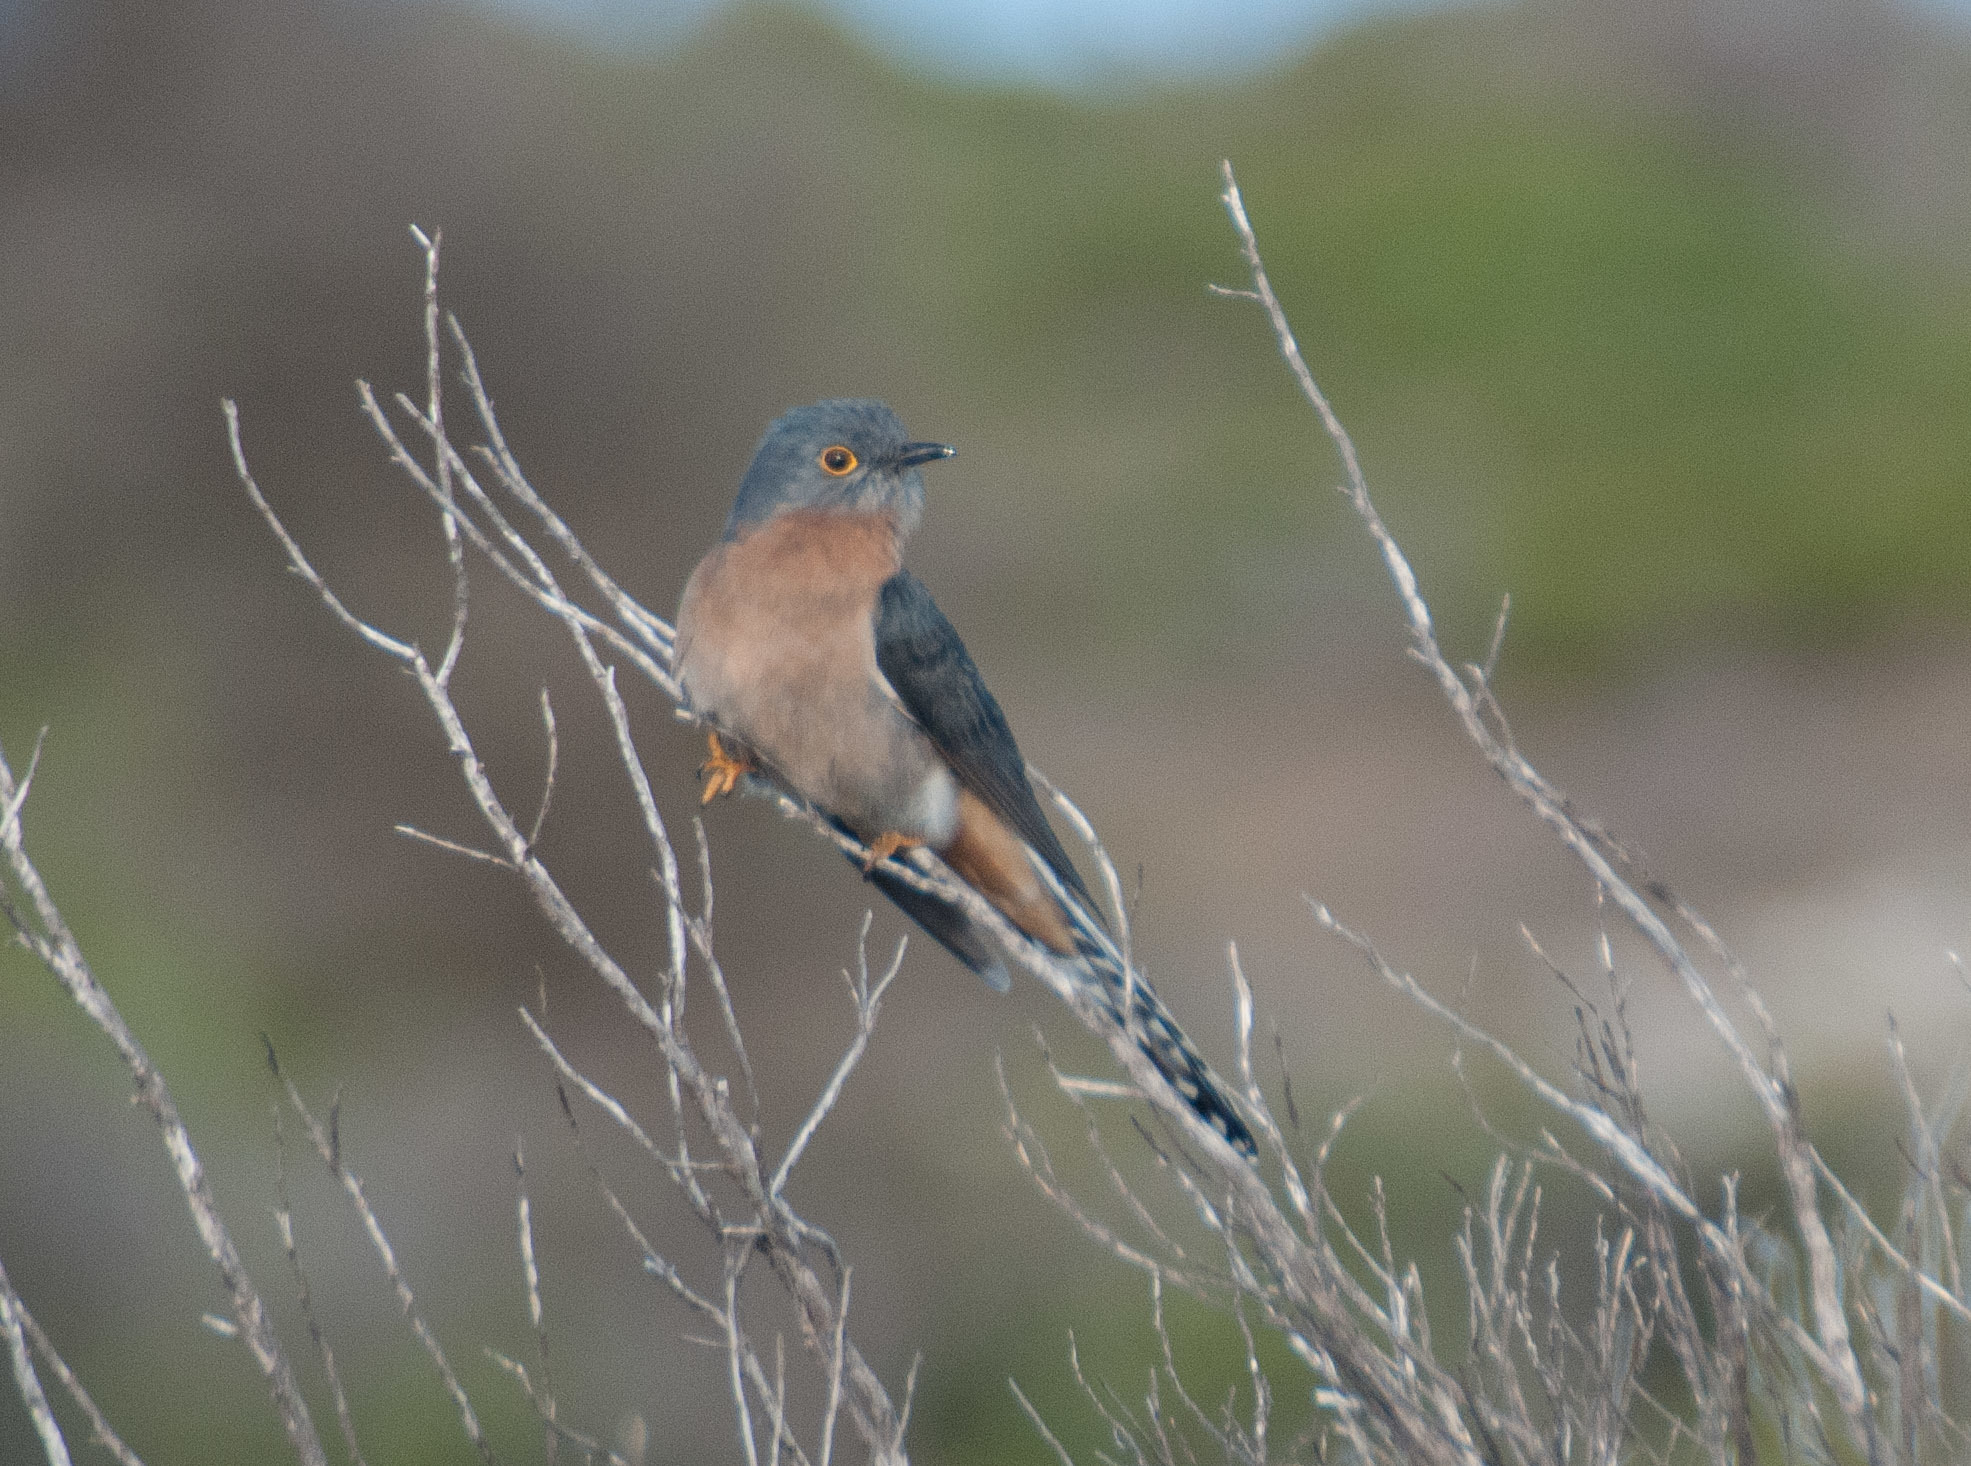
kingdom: Animalia
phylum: Chordata
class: Aves
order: Cuculiformes
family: Cuculidae
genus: Cacomantis
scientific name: Cacomantis flabelliformis
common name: Fan-tailed cuckoo
